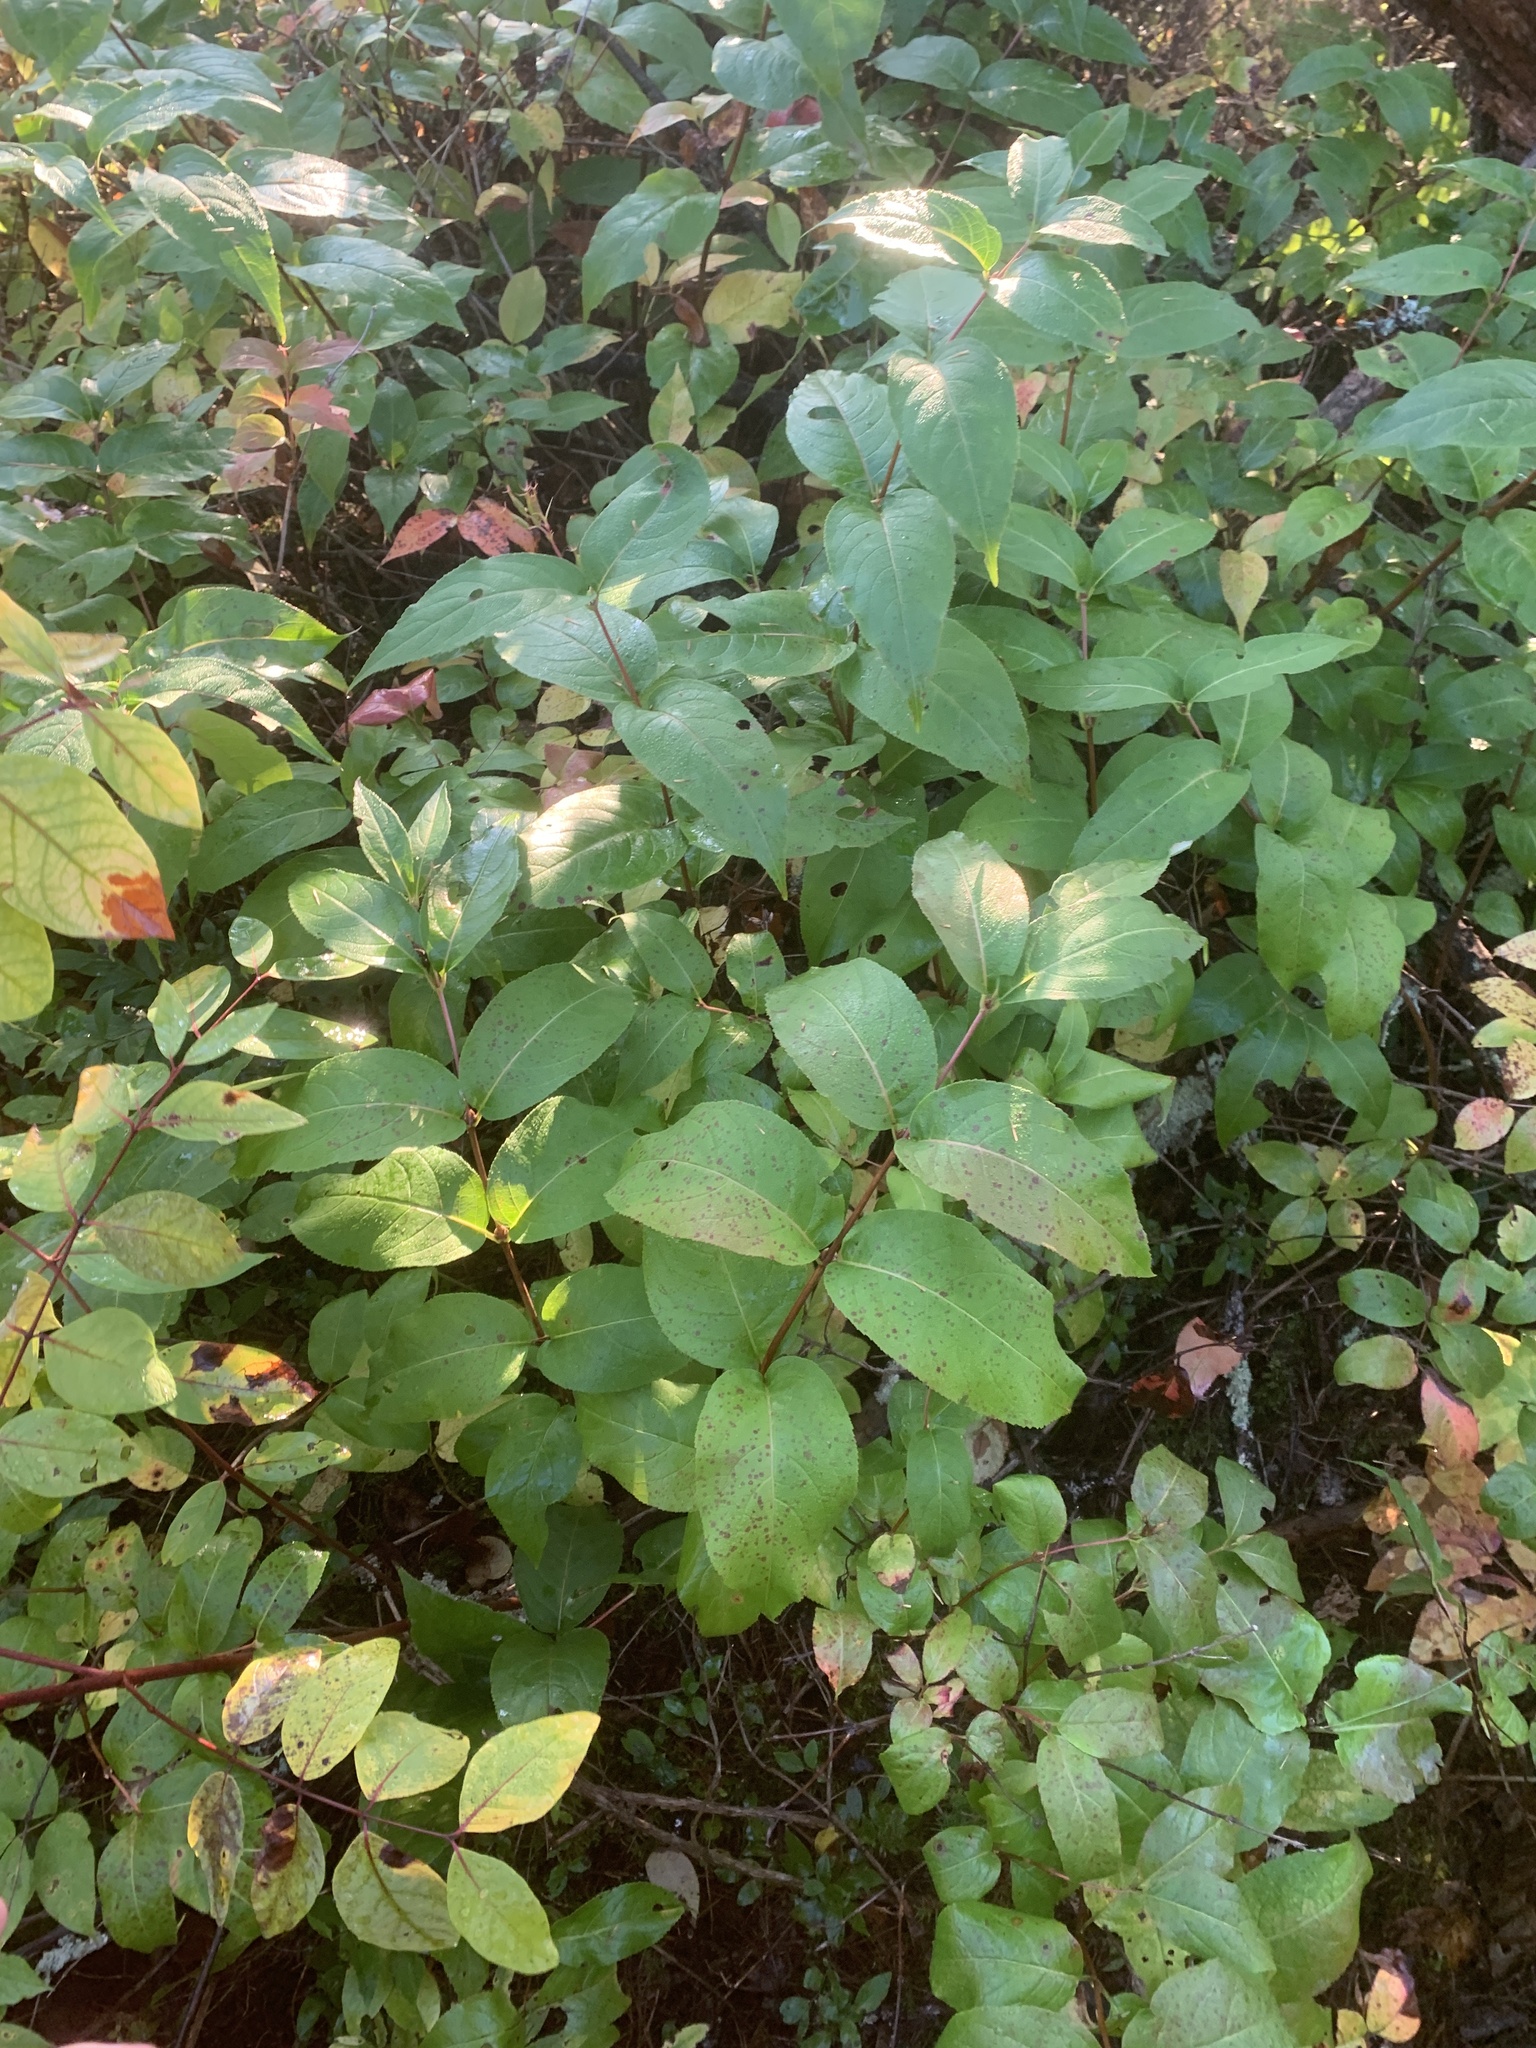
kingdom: Plantae
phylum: Tracheophyta
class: Magnoliopsida
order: Dipsacales
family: Caprifoliaceae
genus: Diervilla
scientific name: Diervilla lonicera
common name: Bush-honeysuckle
